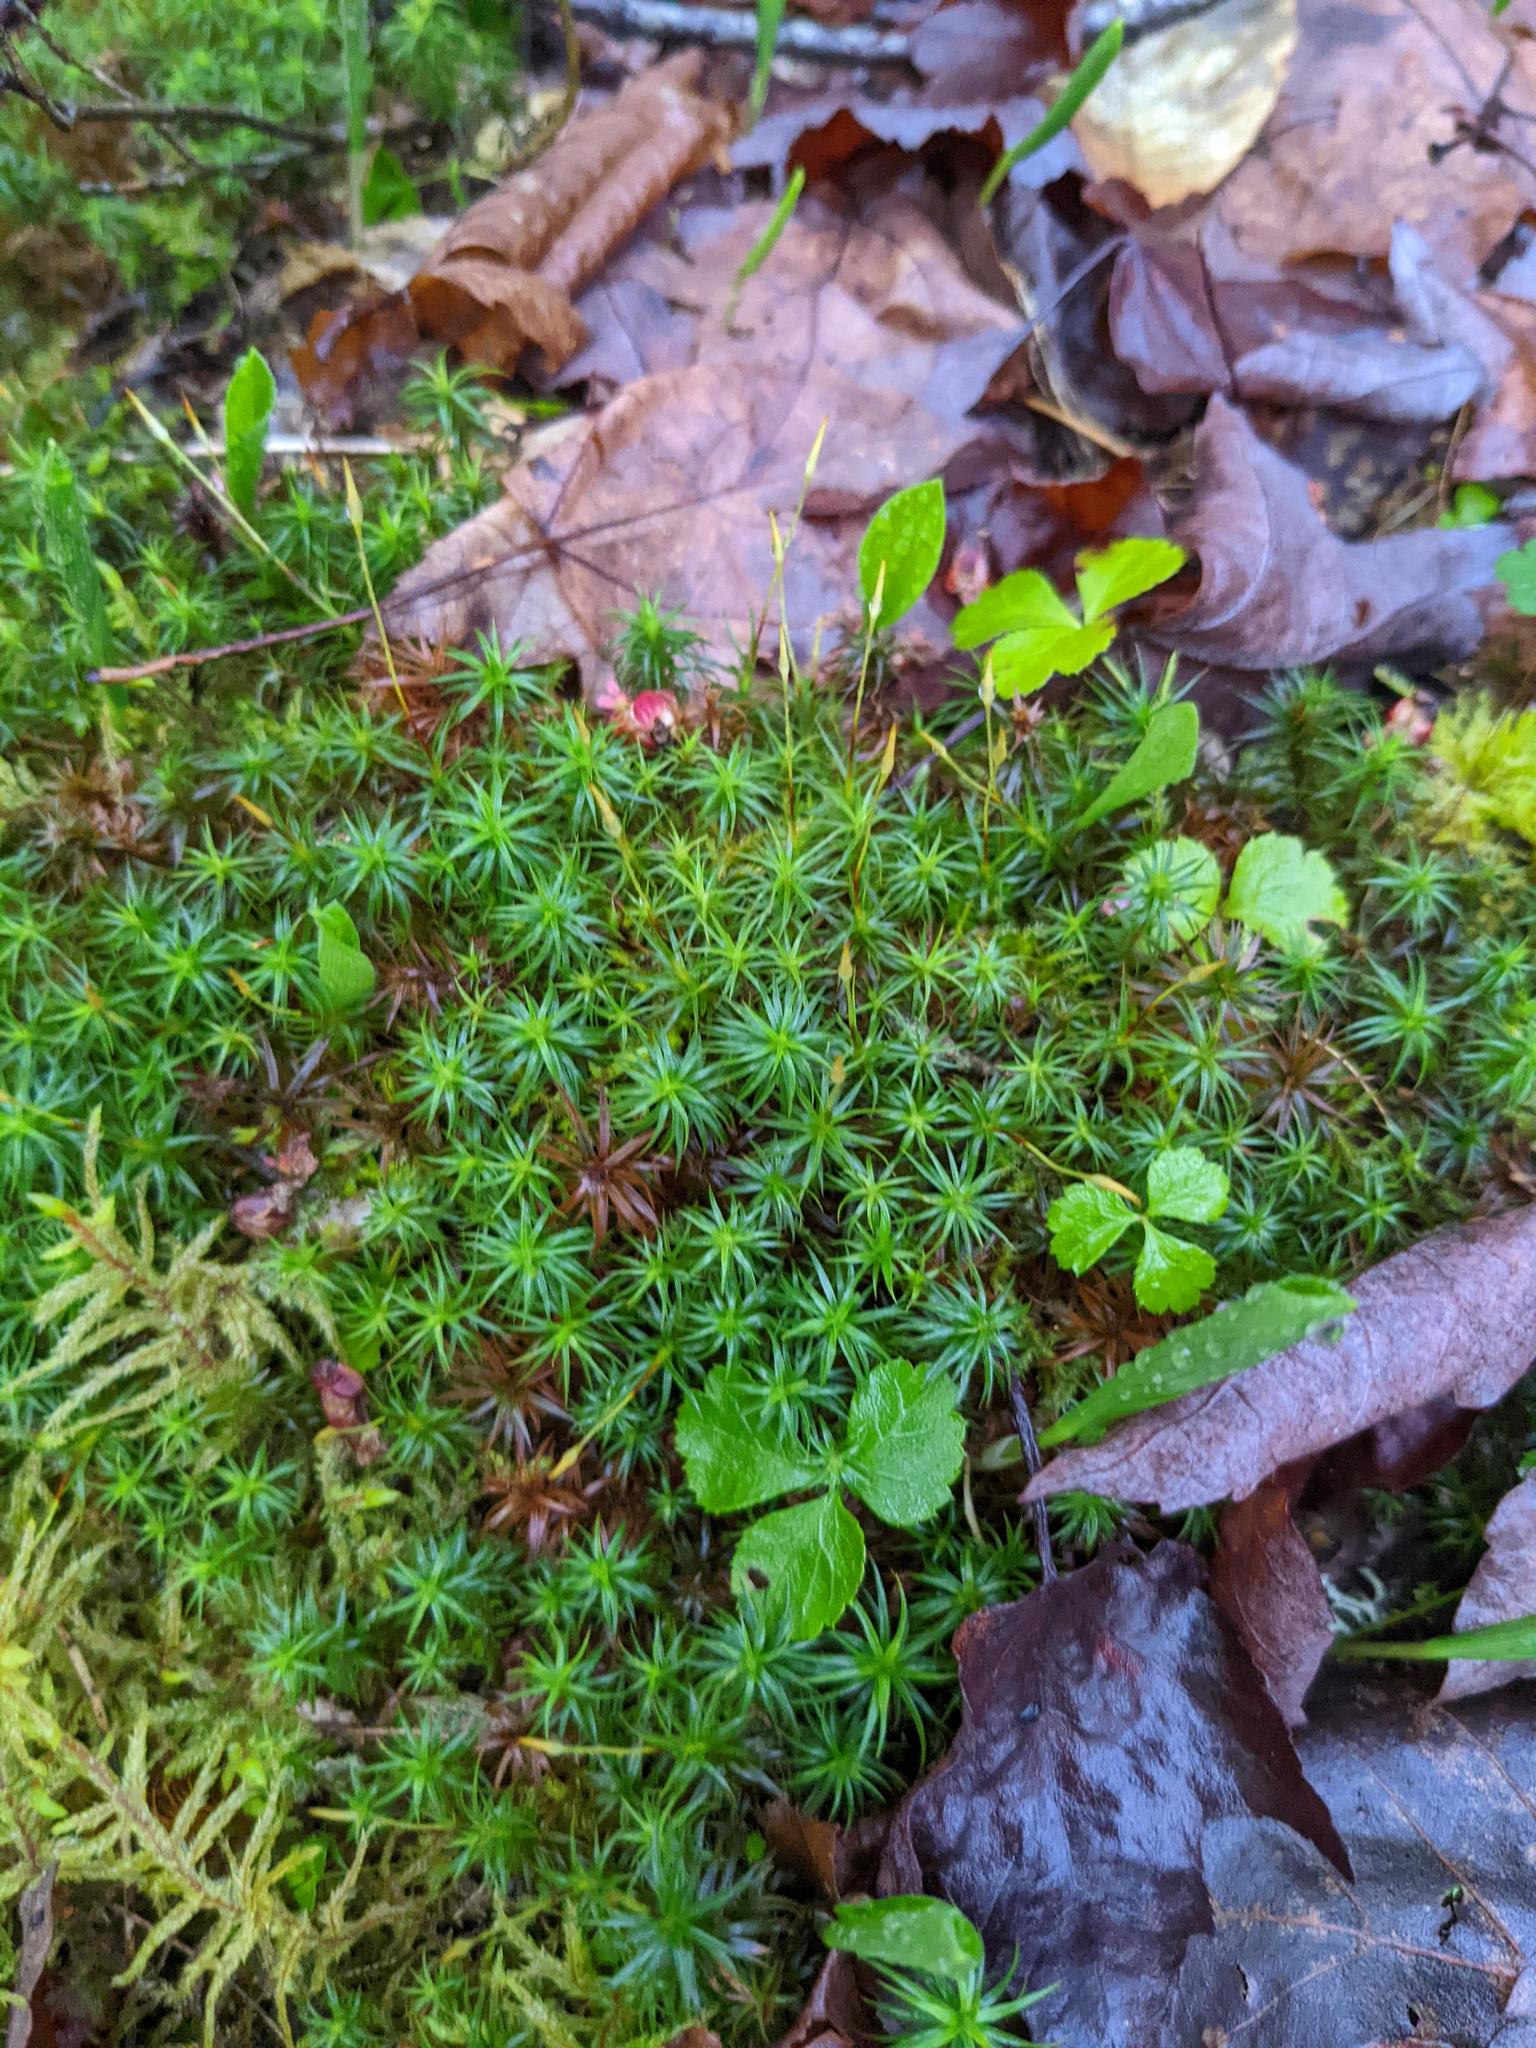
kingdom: Plantae
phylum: Tracheophyta
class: Magnoliopsida
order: Ranunculales
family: Ranunculaceae
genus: Coptis
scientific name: Coptis trifolia
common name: Canker-root
